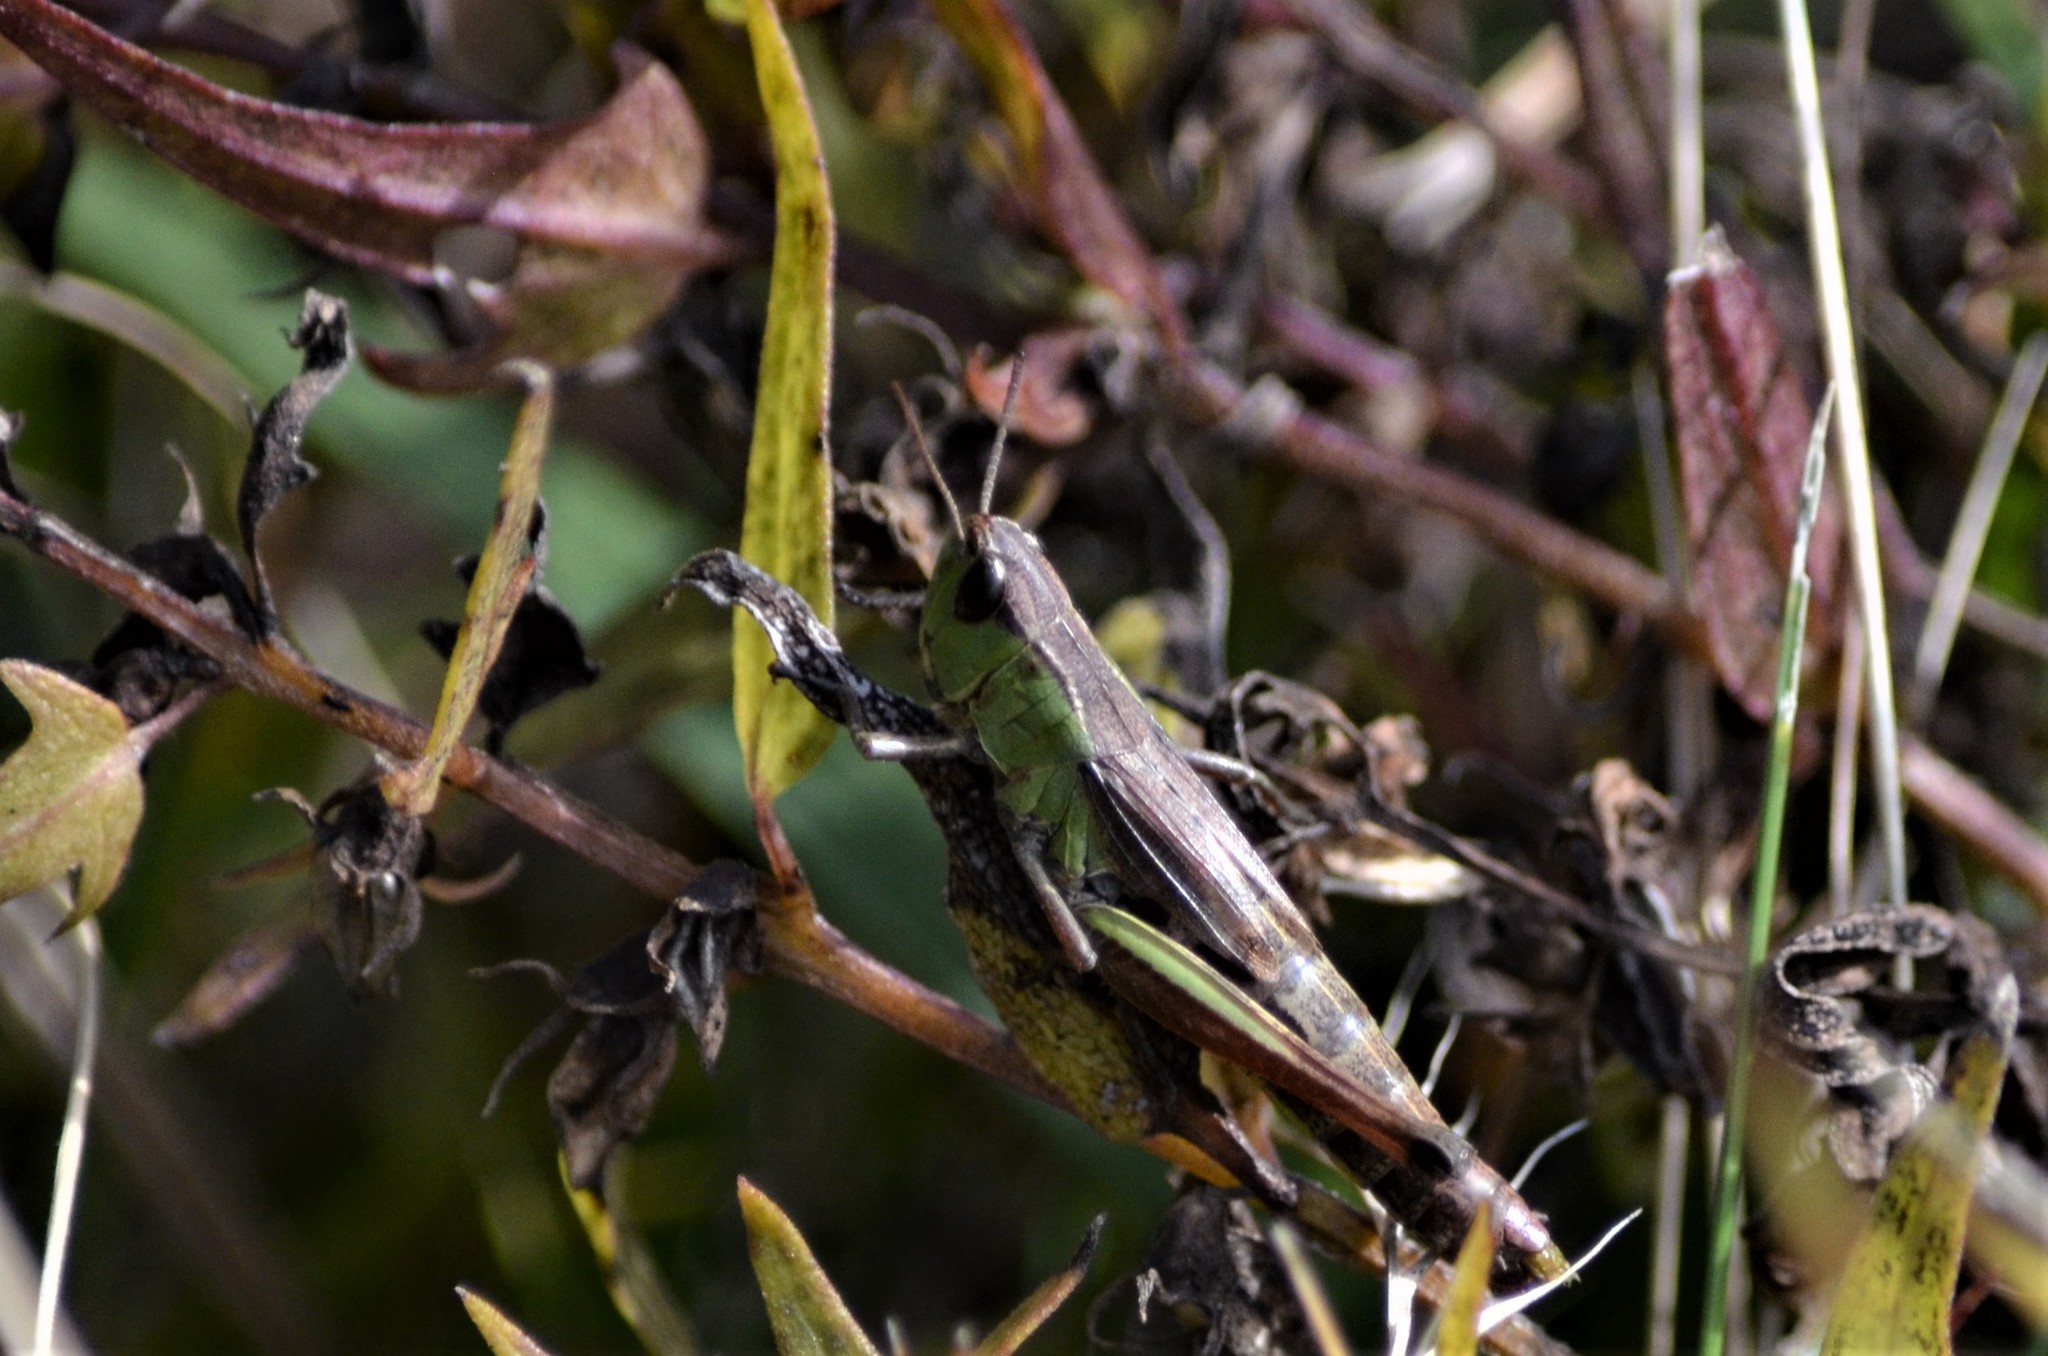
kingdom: Animalia
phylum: Arthropoda
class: Insecta
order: Orthoptera
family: Acrididae
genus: Pseudochorthippus
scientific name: Pseudochorthippus parallelus
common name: Meadow grasshopper
